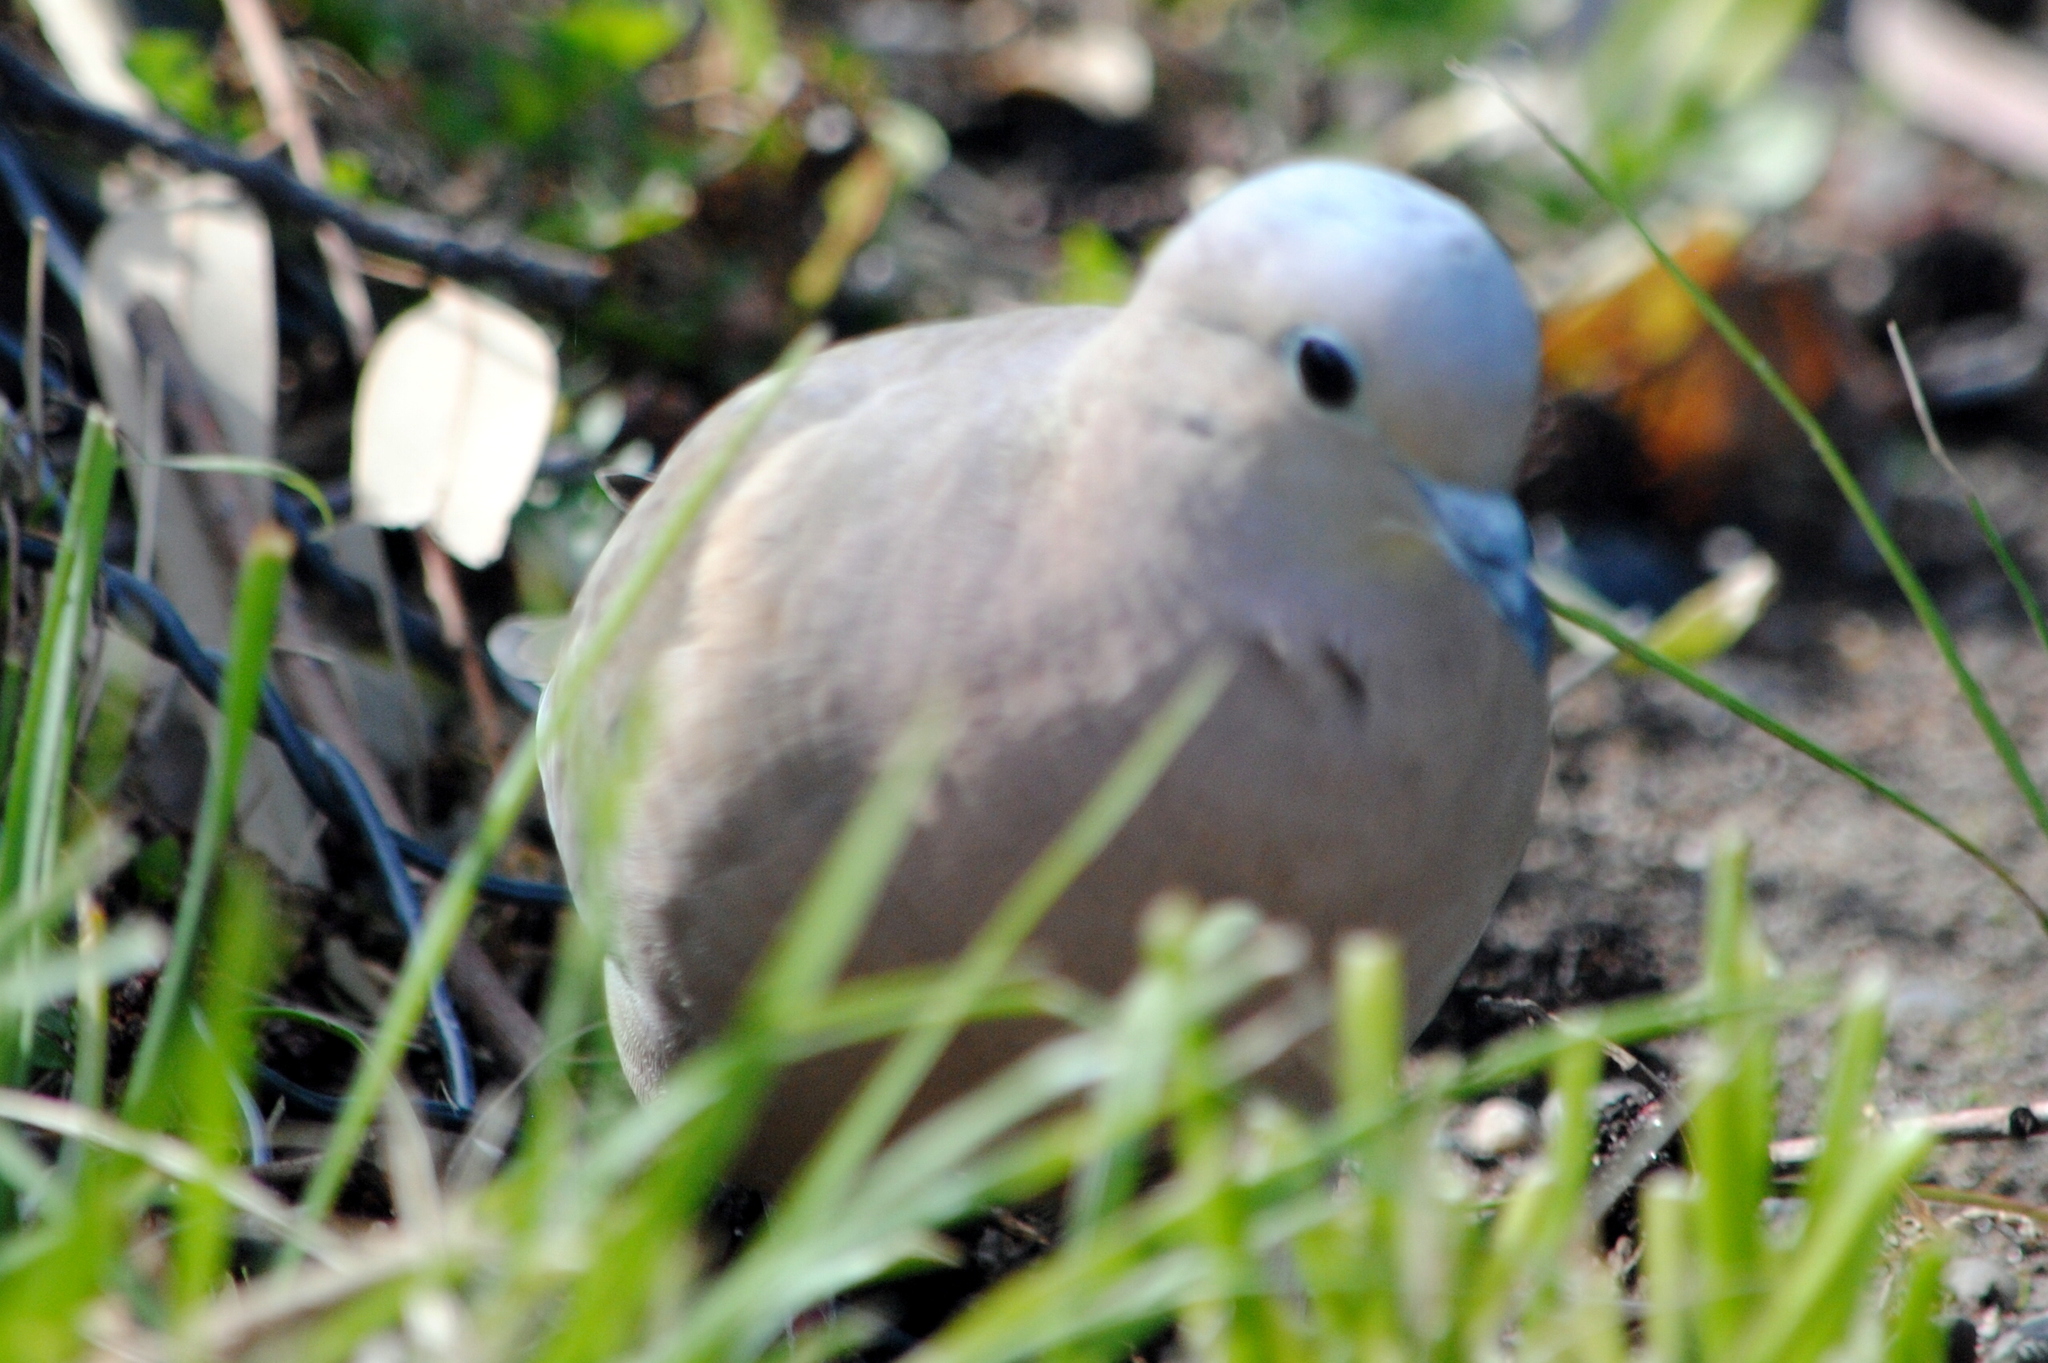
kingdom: Animalia
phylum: Chordata
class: Aves
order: Columbiformes
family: Columbidae
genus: Zenaida
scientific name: Zenaida auriculata
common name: Eared dove
